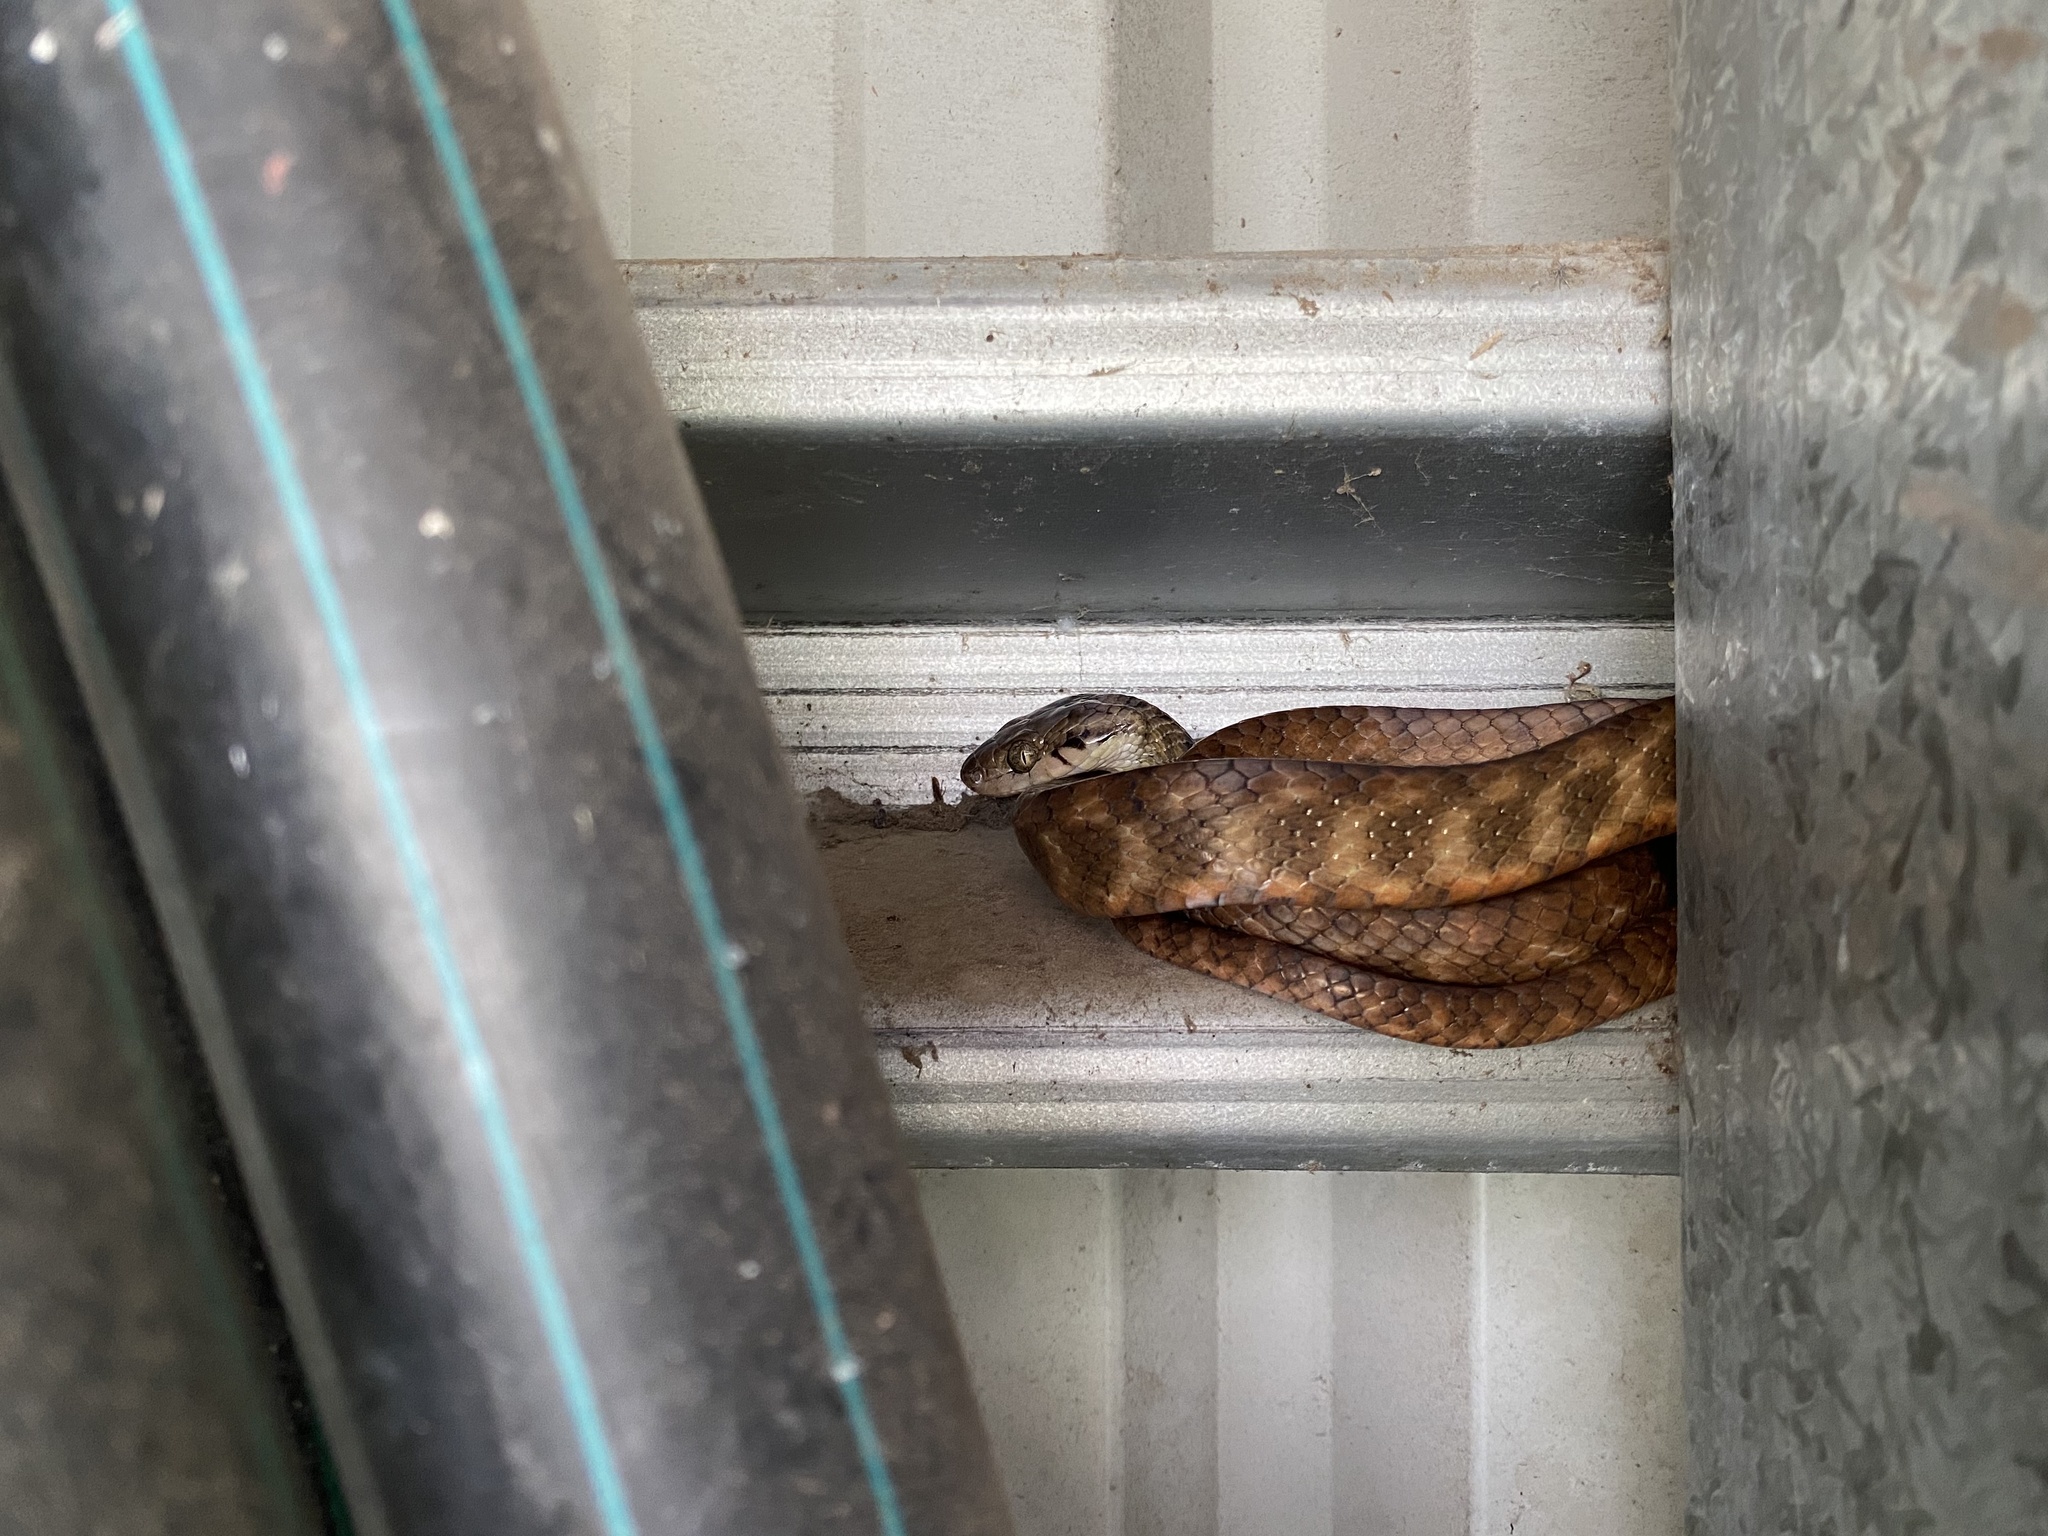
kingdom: Animalia
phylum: Chordata
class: Squamata
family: Colubridae
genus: Boiga
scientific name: Boiga irregularis
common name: Brown tree snake
